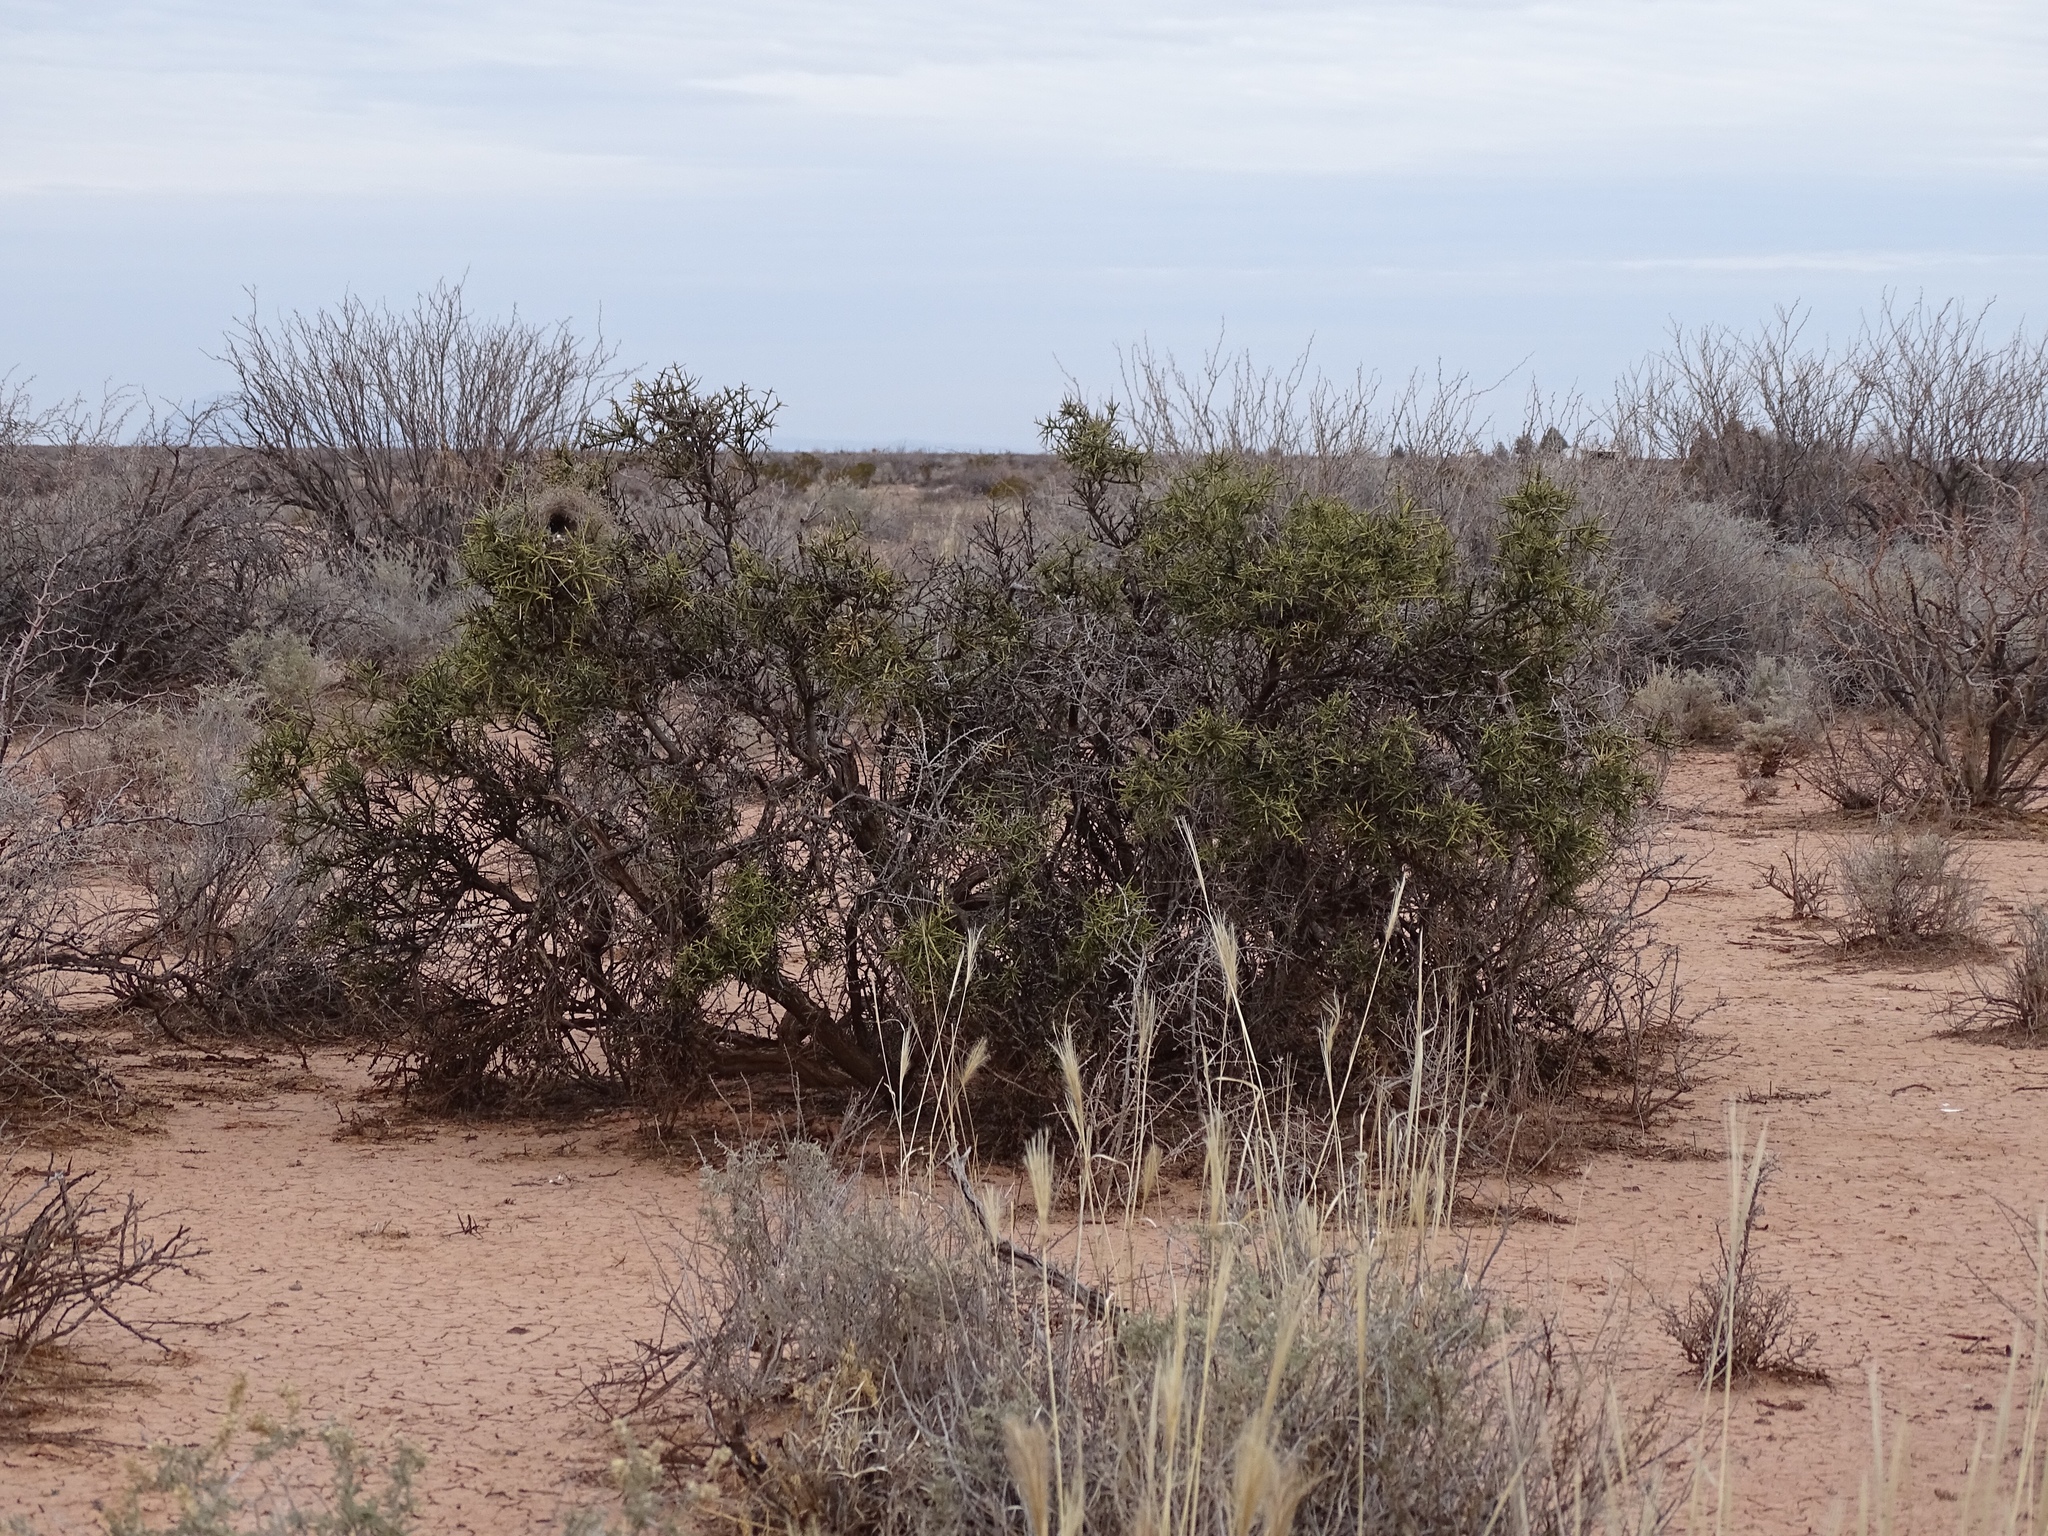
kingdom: Plantae
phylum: Tracheophyta
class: Magnoliopsida
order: Brassicales
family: Koeberliniaceae
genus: Koeberlinia
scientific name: Koeberlinia spinosa
